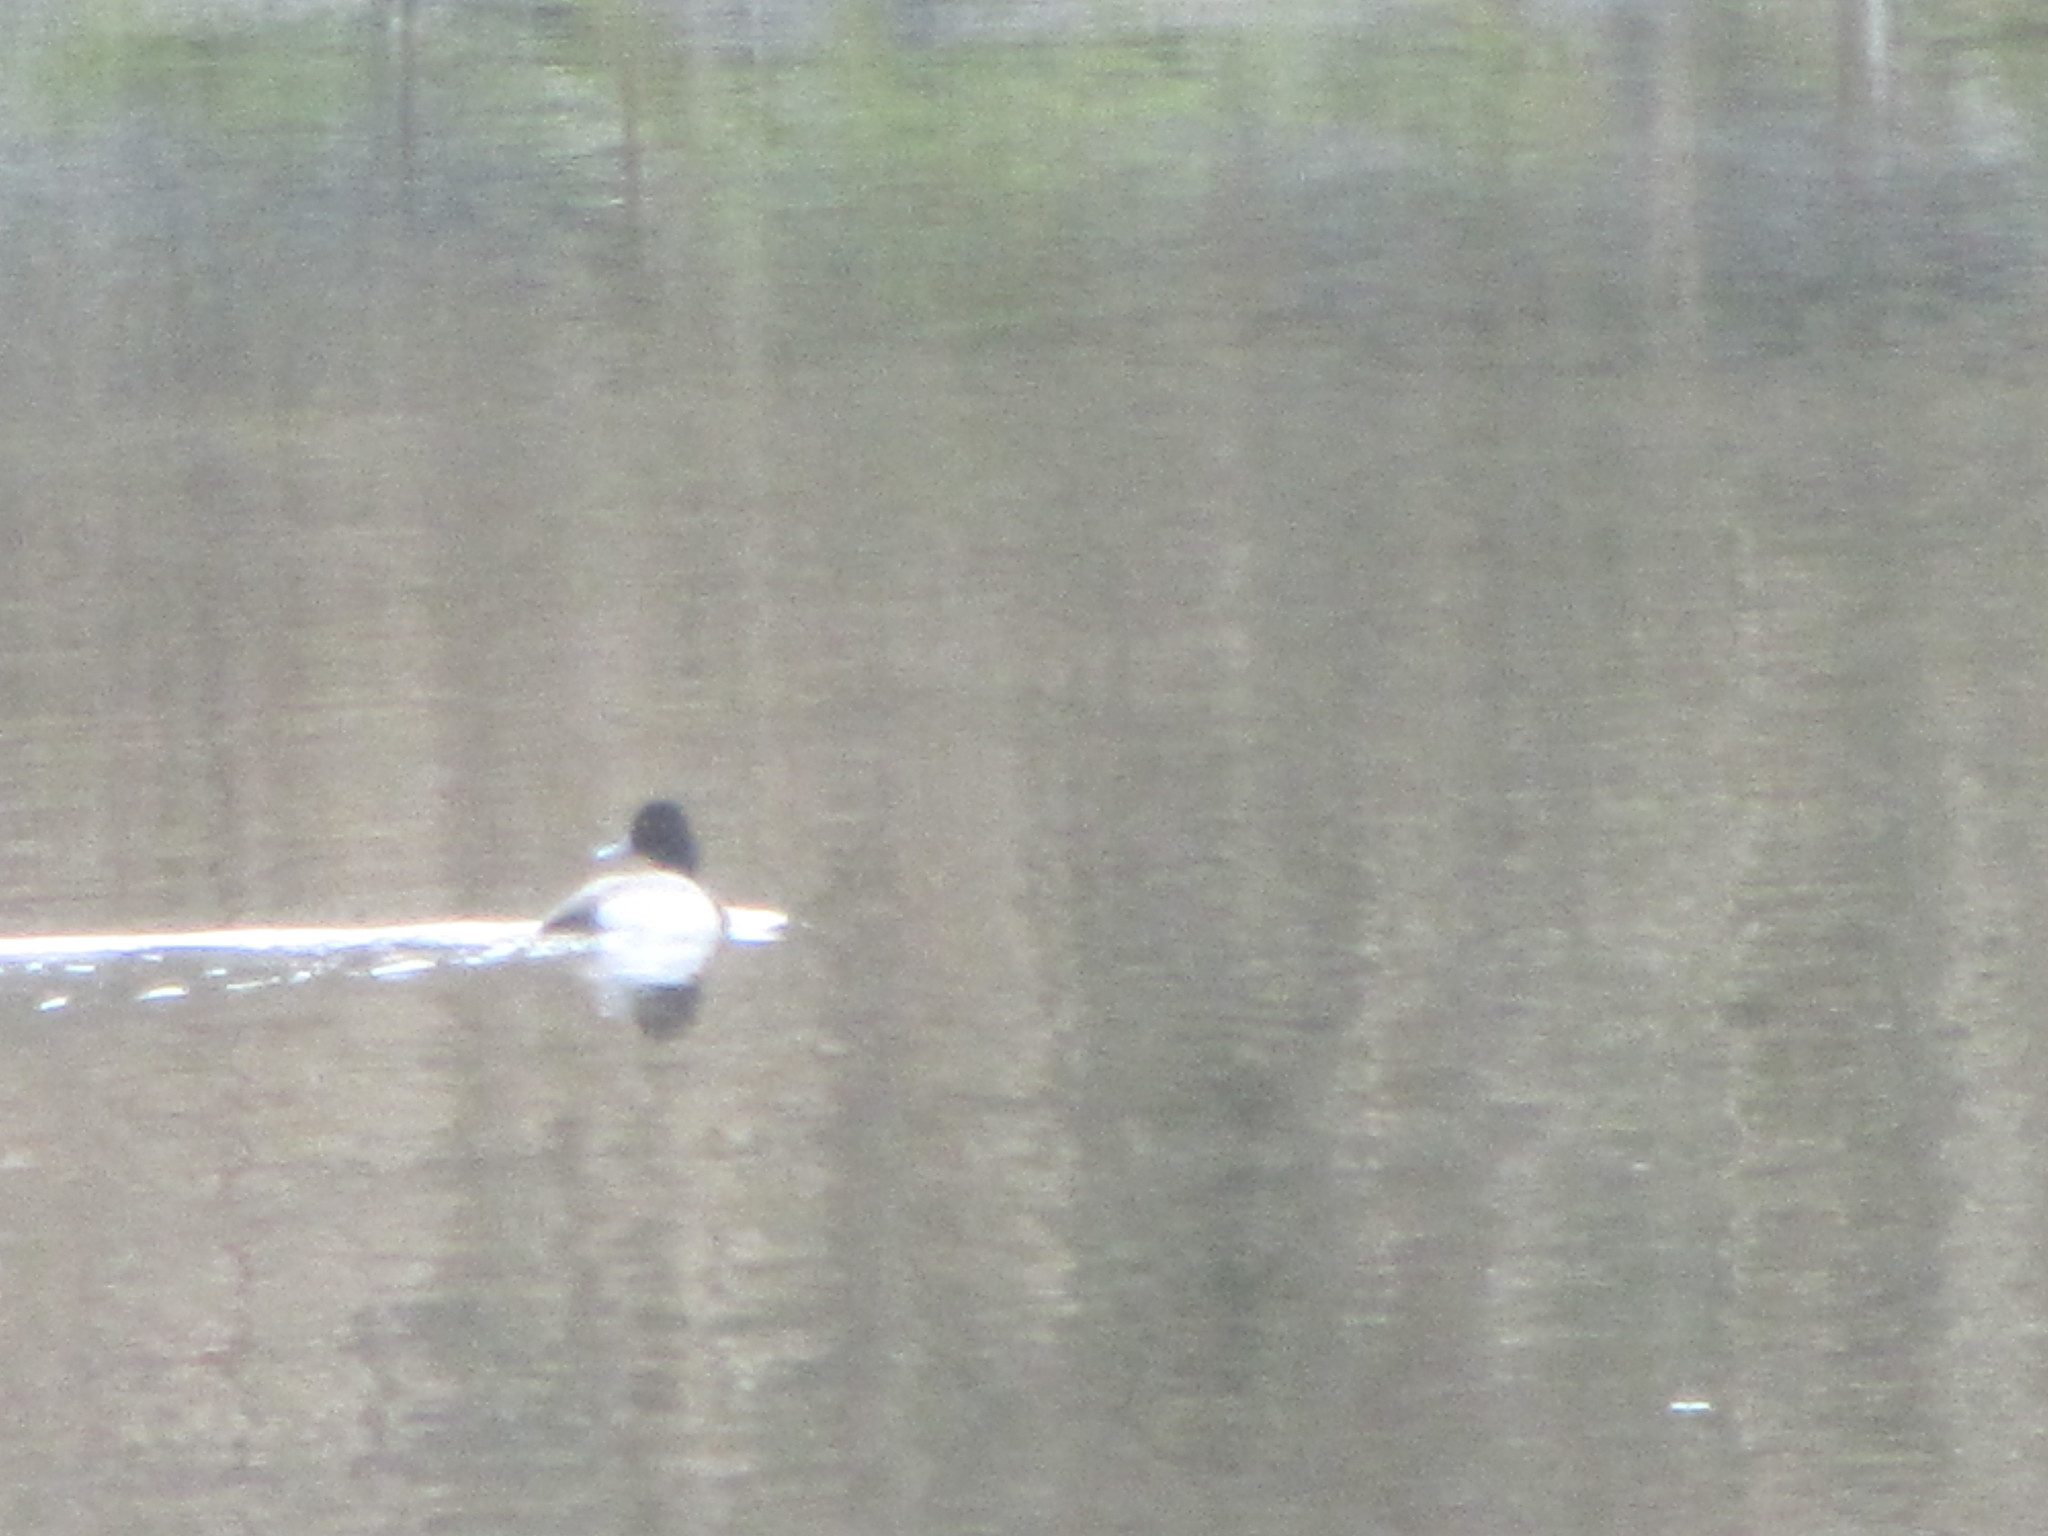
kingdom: Animalia
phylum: Chordata
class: Aves
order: Anseriformes
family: Anatidae
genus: Aythya
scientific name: Aythya affinis
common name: Lesser scaup
